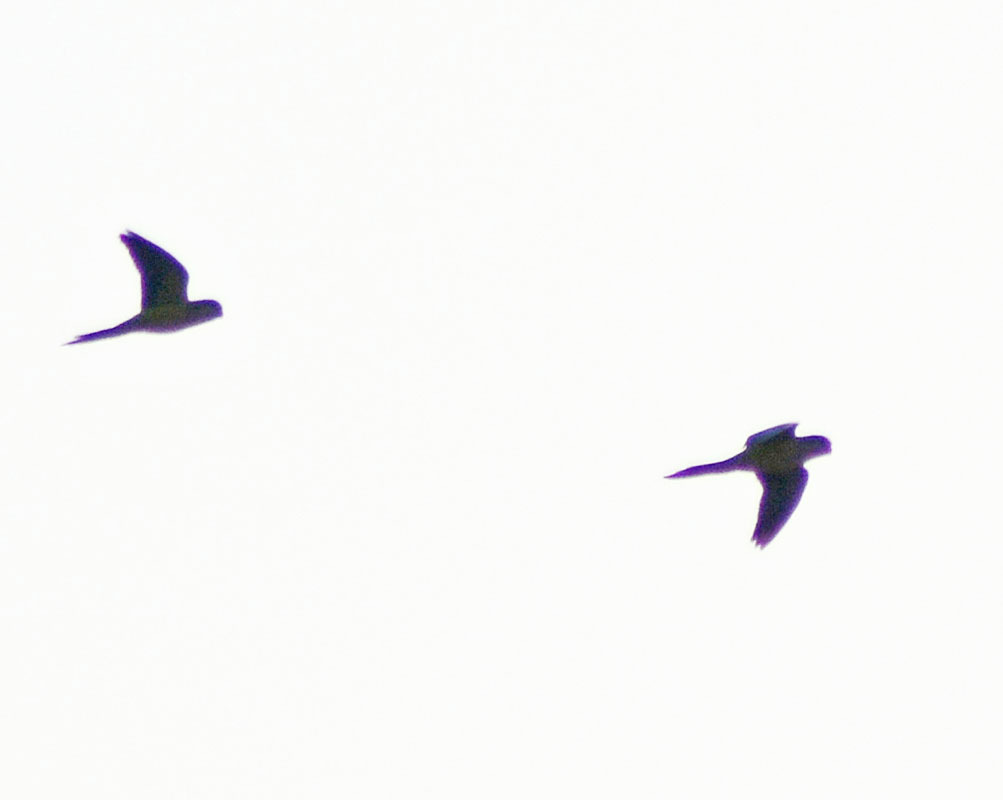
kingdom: Animalia
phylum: Chordata
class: Aves
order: Psittaciformes
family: Psittacidae
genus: Myiopsitta
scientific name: Myiopsitta monachus
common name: Monk parakeet
